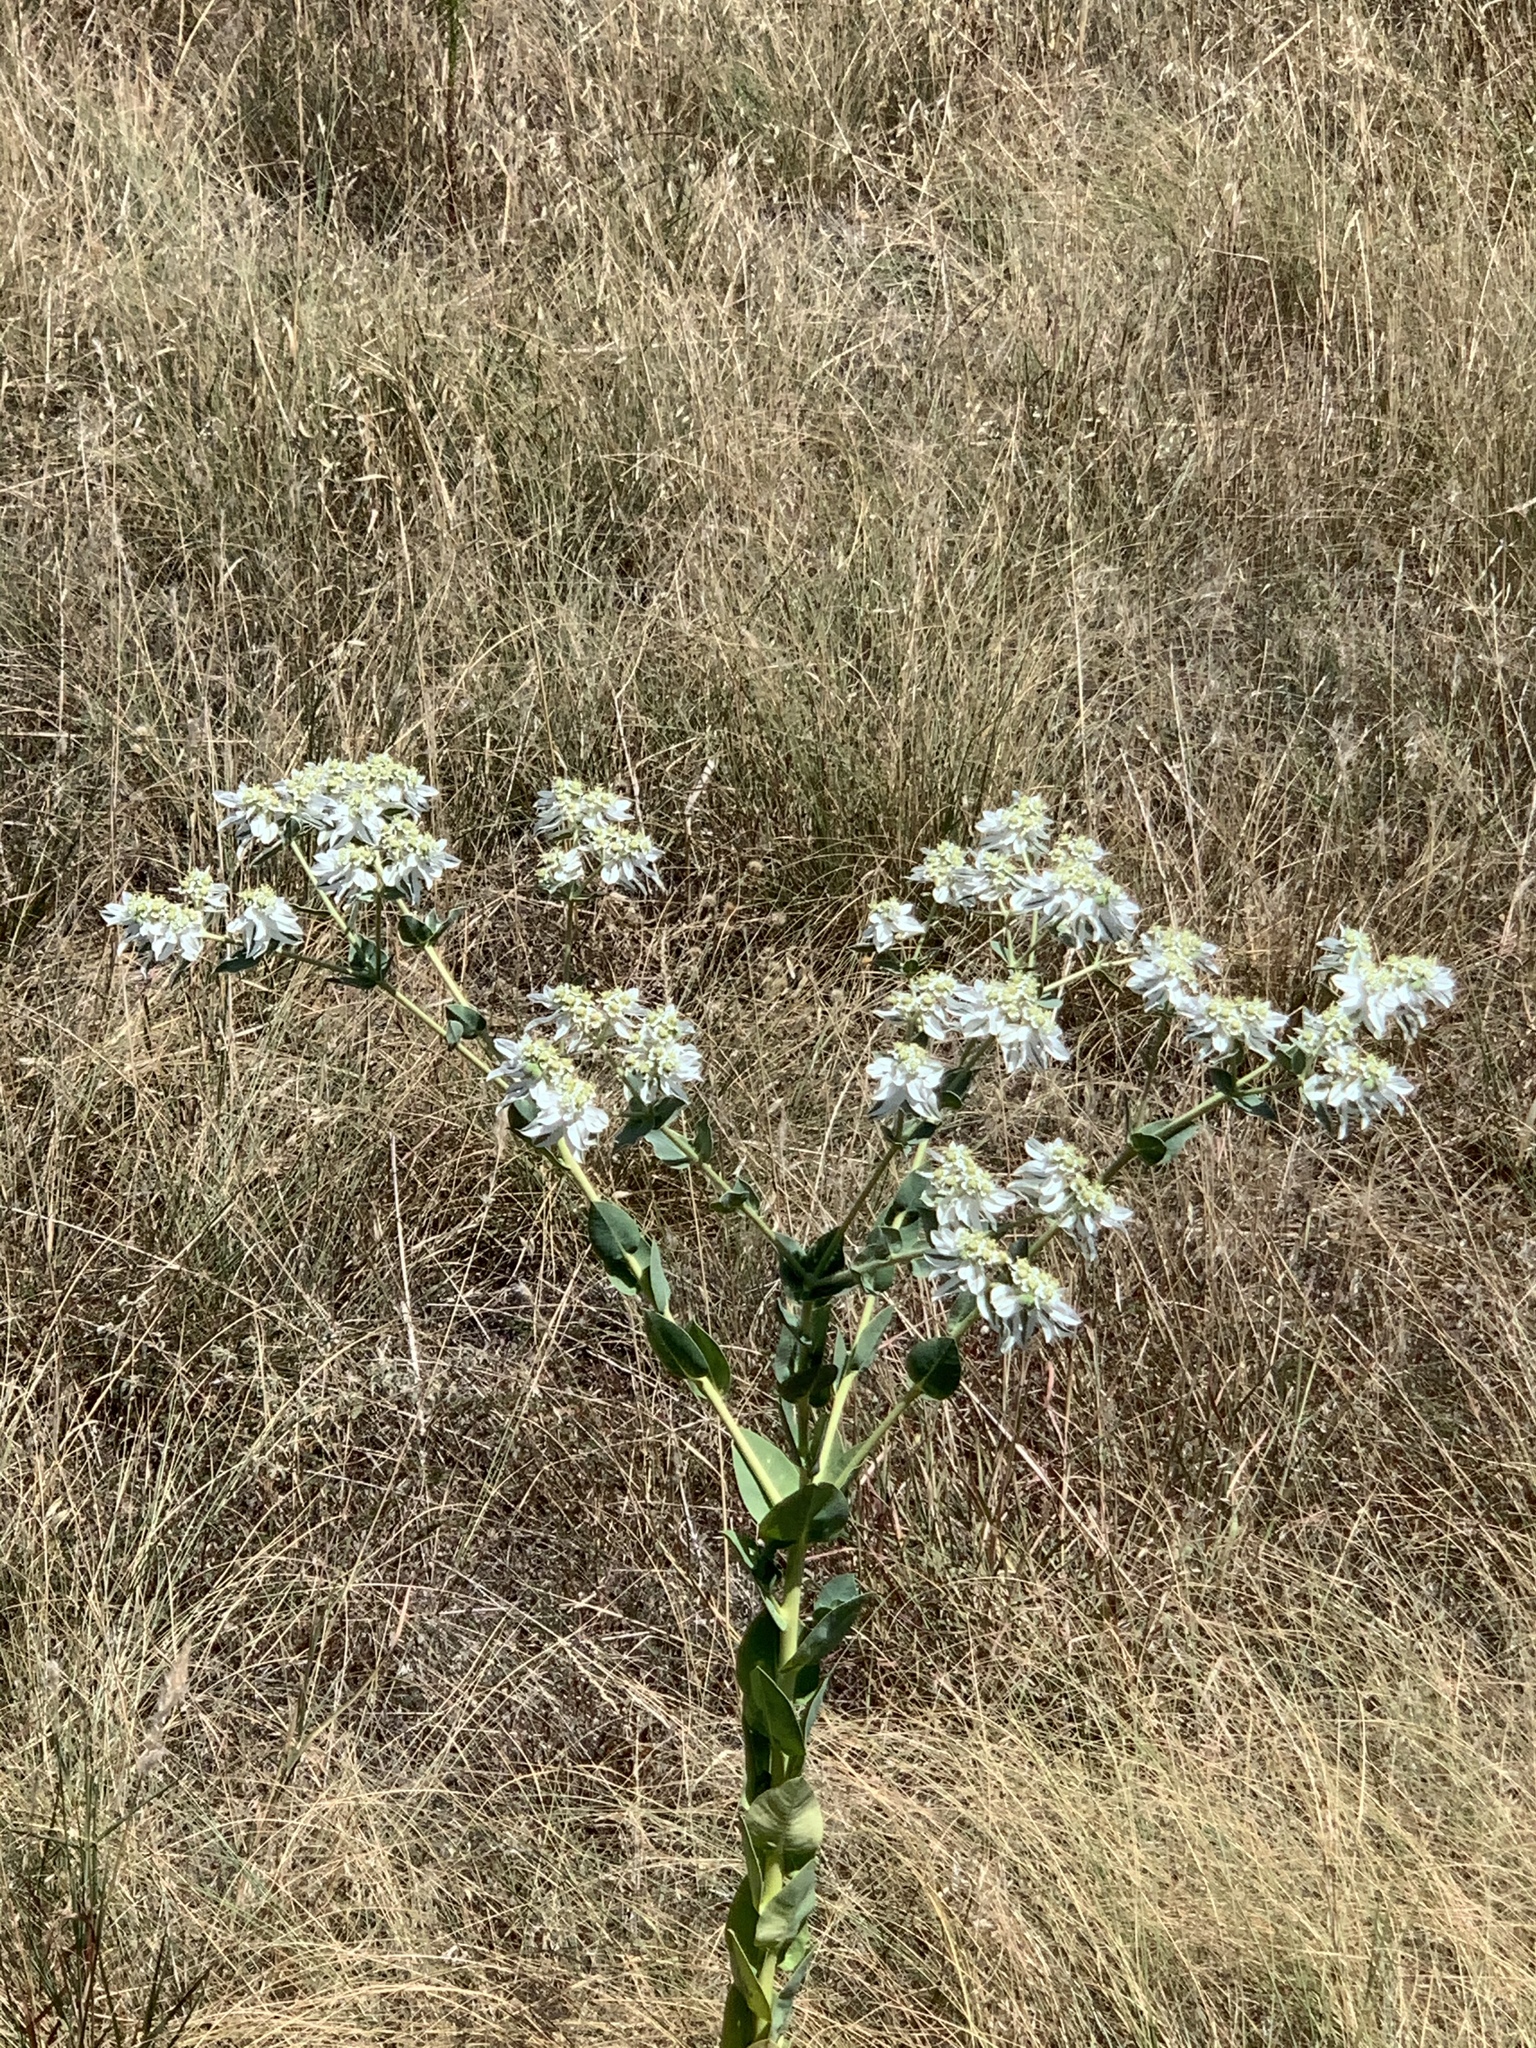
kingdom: Plantae
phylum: Tracheophyta
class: Magnoliopsida
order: Malpighiales
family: Euphorbiaceae
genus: Euphorbia
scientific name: Euphorbia marginata
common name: Ghostweed
